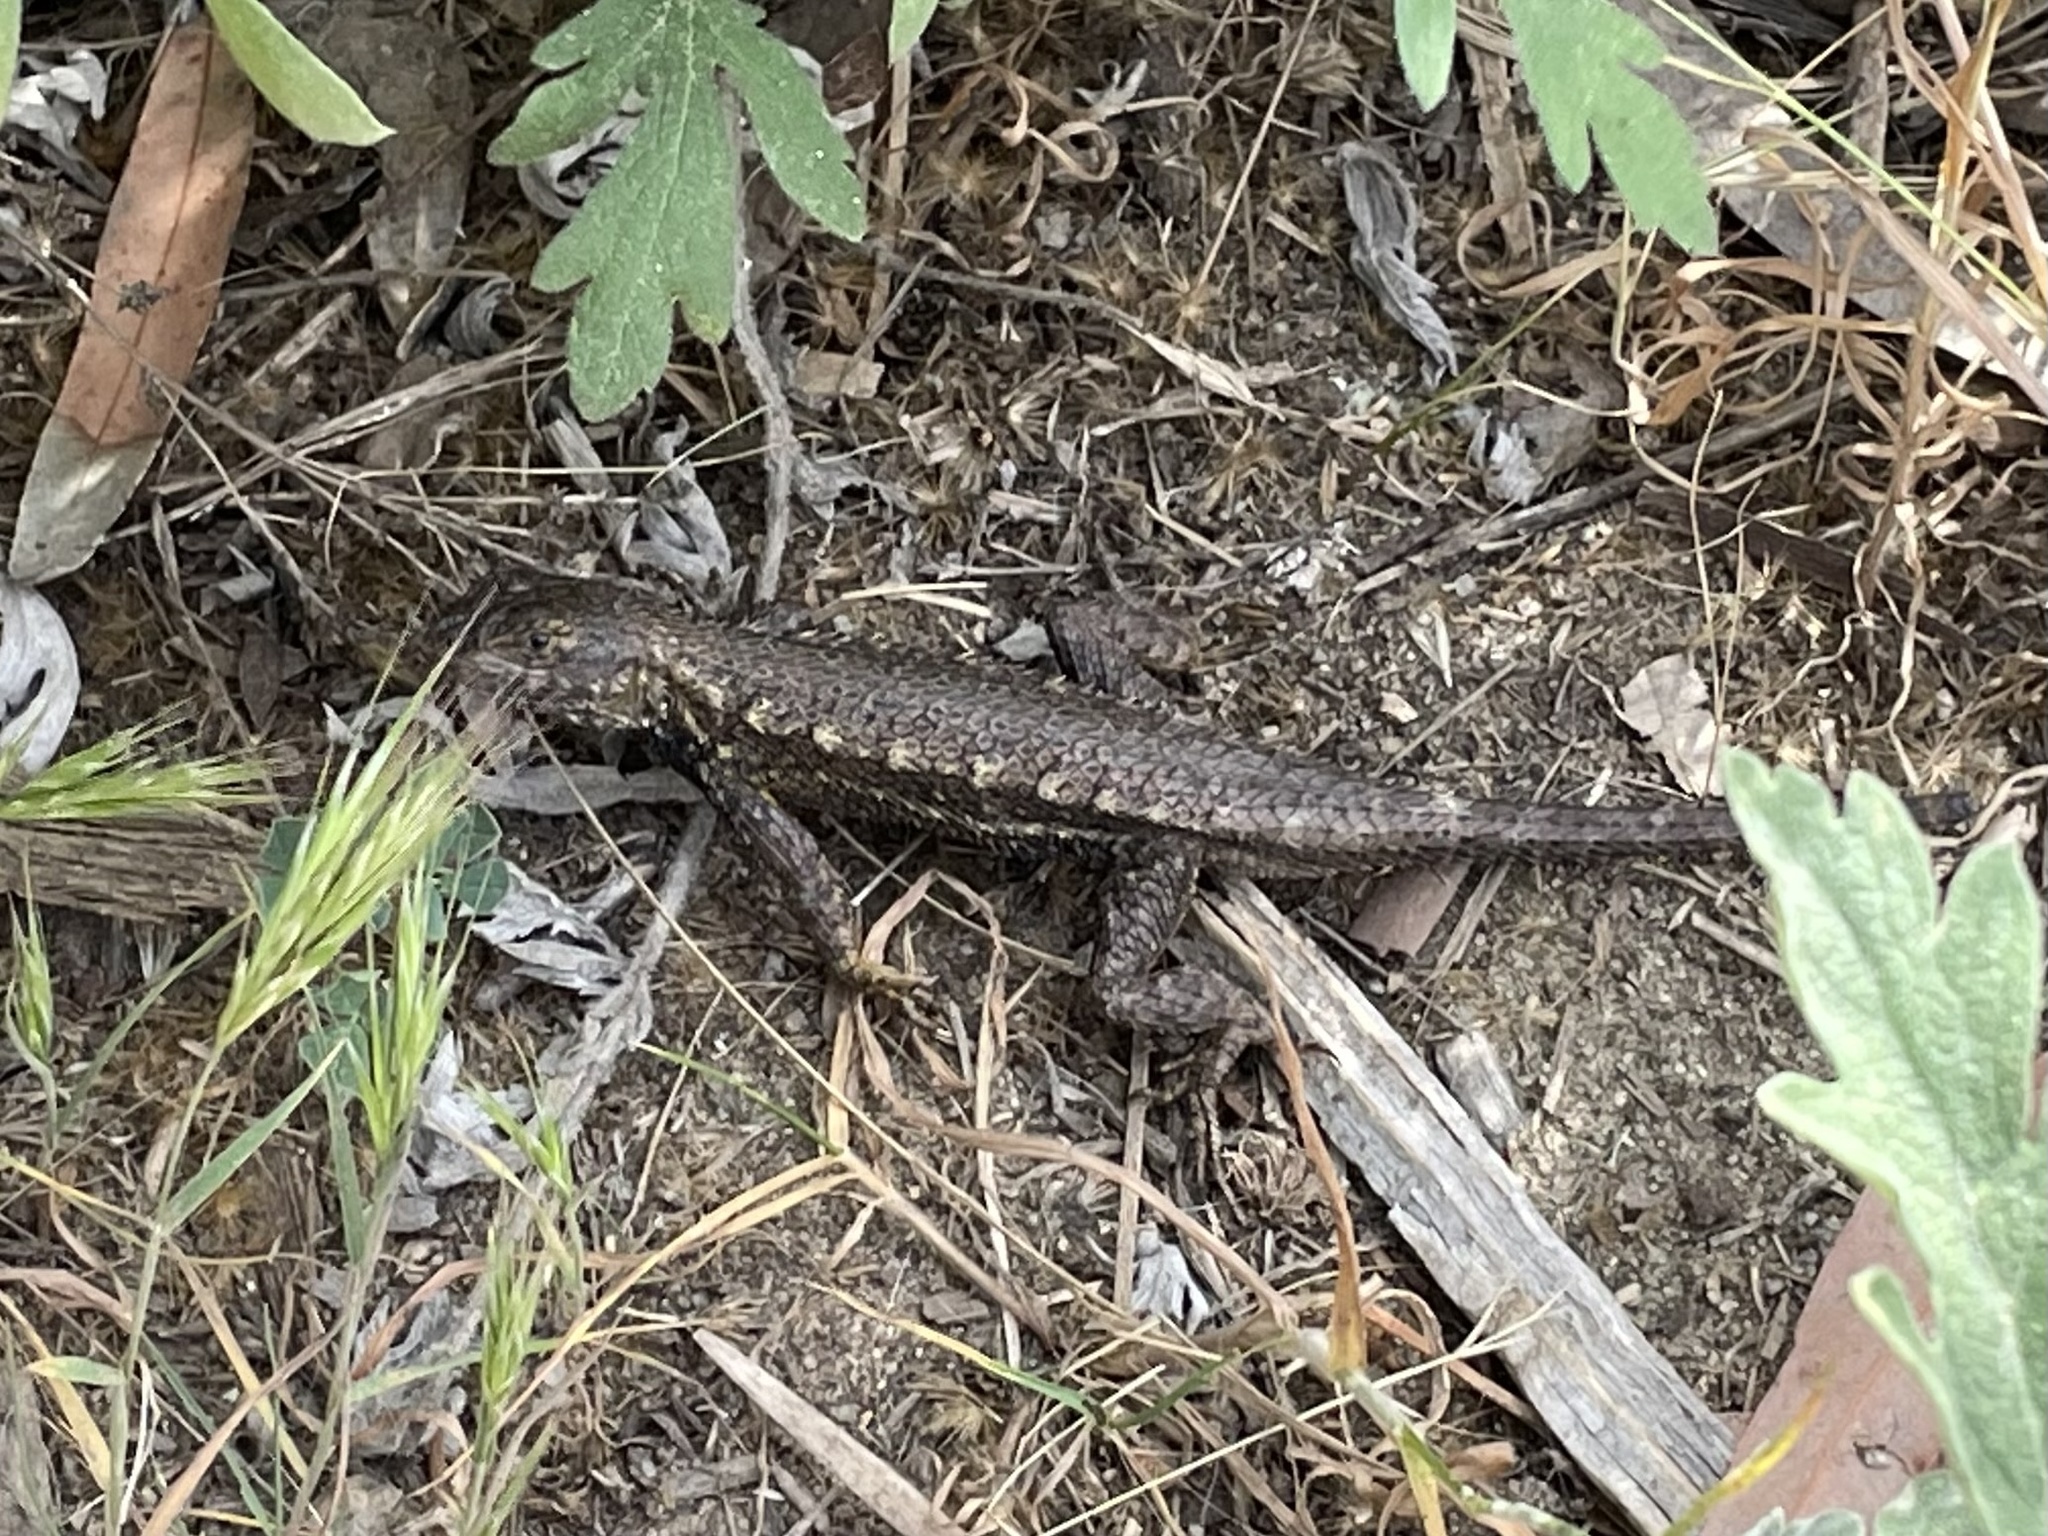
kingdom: Animalia
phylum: Chordata
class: Squamata
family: Phrynosomatidae
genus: Sceloporus
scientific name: Sceloporus occidentalis
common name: Western fence lizard
